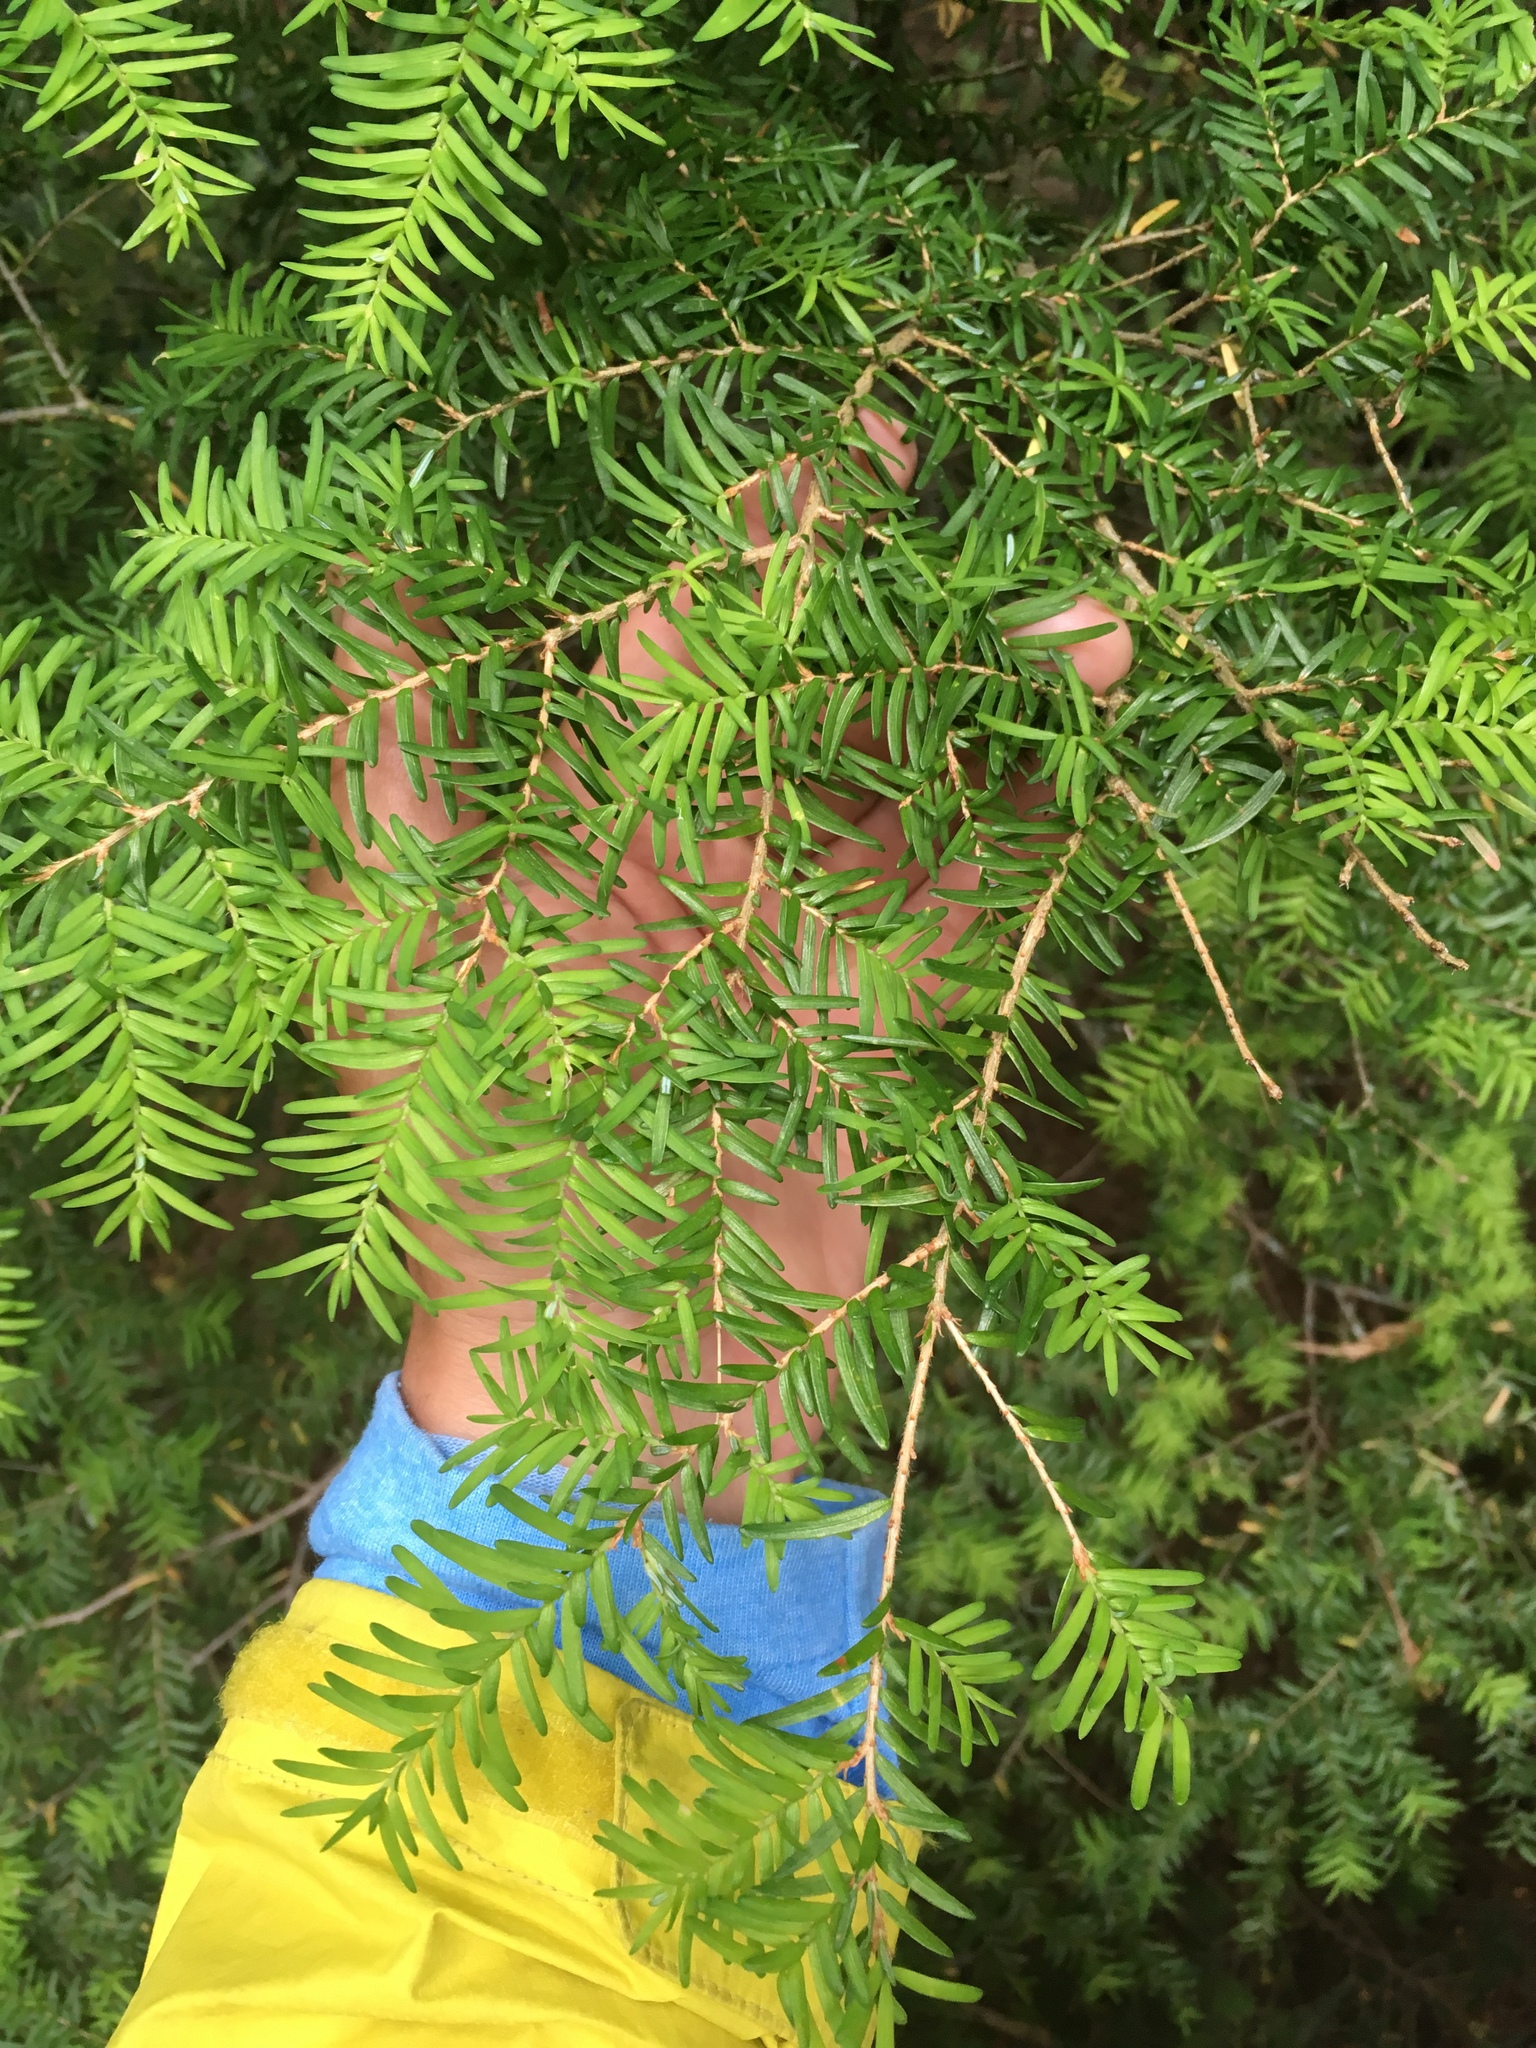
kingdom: Plantae
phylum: Tracheophyta
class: Pinopsida
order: Pinales
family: Pinaceae
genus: Tsuga
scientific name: Tsuga heterophylla
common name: Western hemlock
